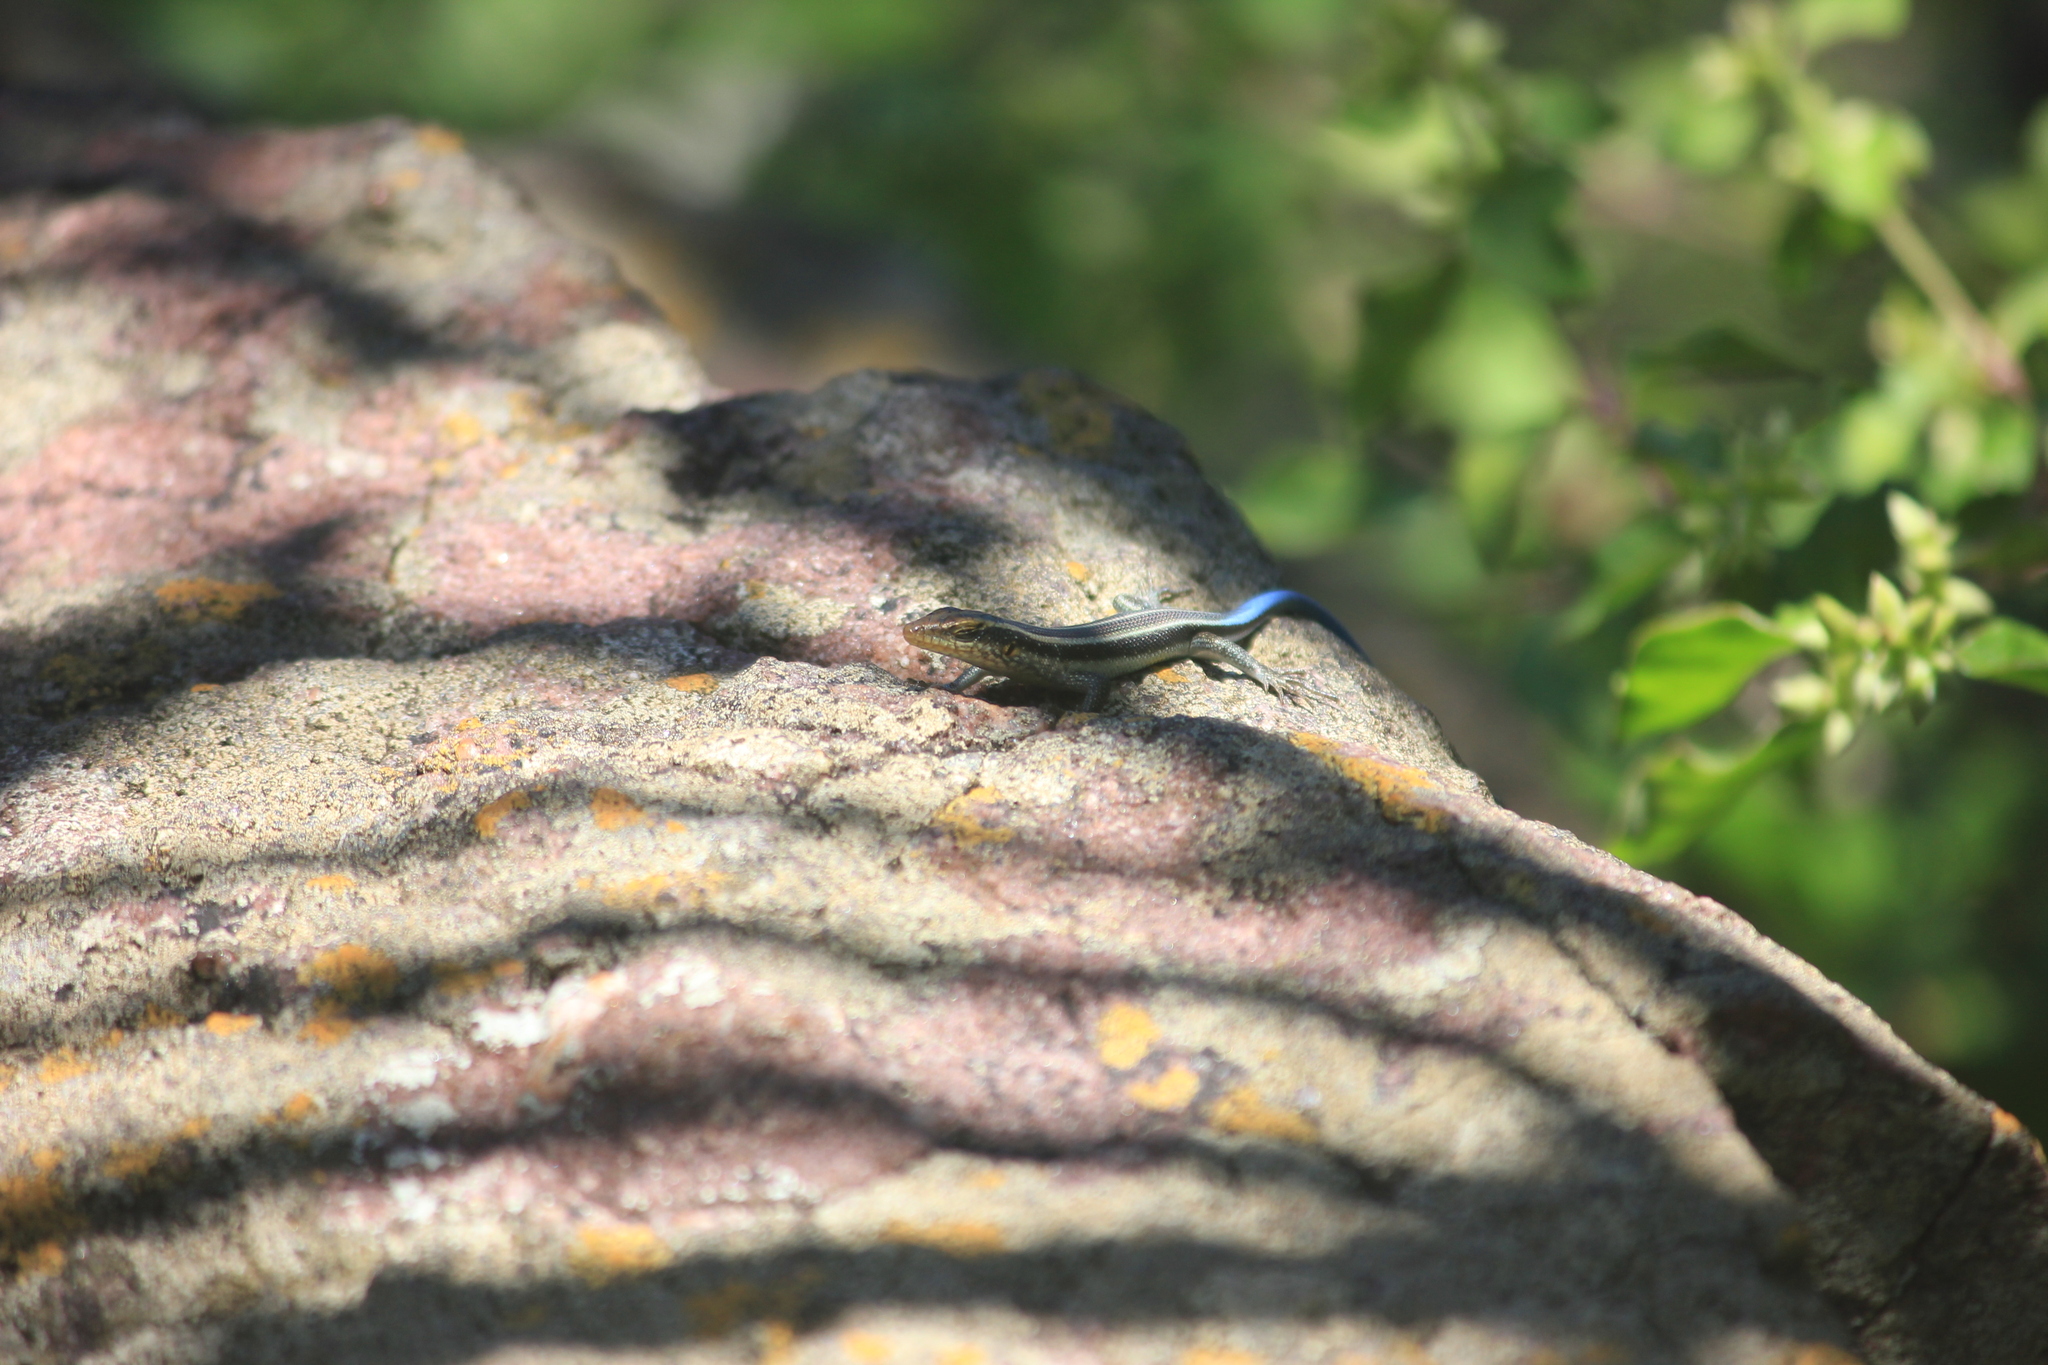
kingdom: Animalia
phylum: Chordata
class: Squamata
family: Scincidae
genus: Trachylepis
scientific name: Trachylepis margaritifera
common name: Rainbow skink
